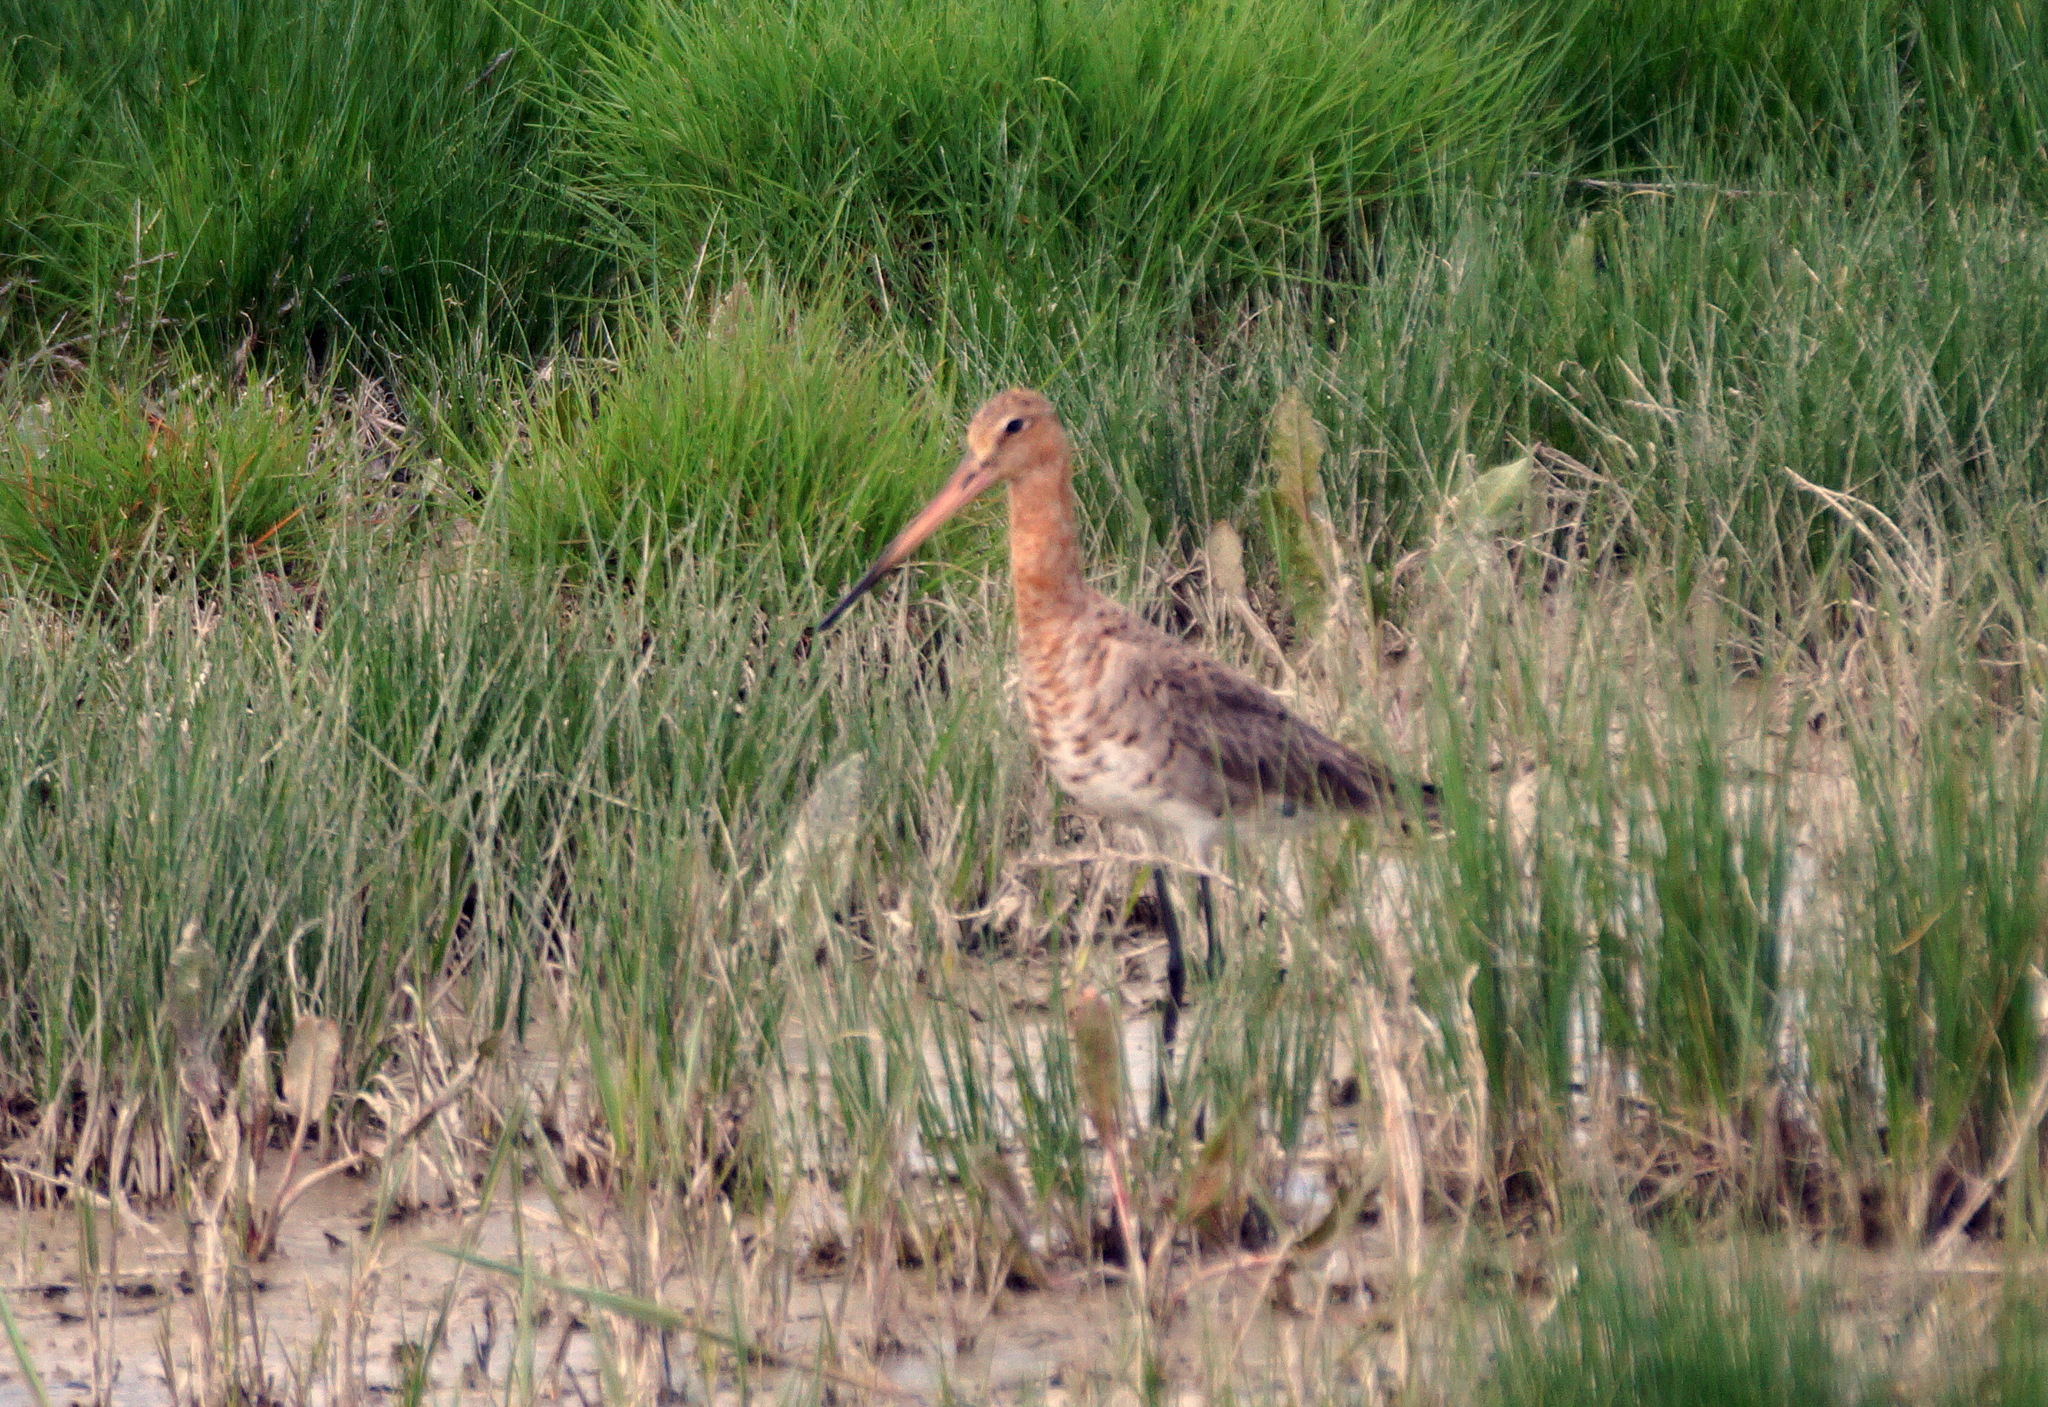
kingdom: Animalia
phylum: Chordata
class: Aves
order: Charadriiformes
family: Scolopacidae
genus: Limosa
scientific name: Limosa limosa
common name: Black-tailed godwit
